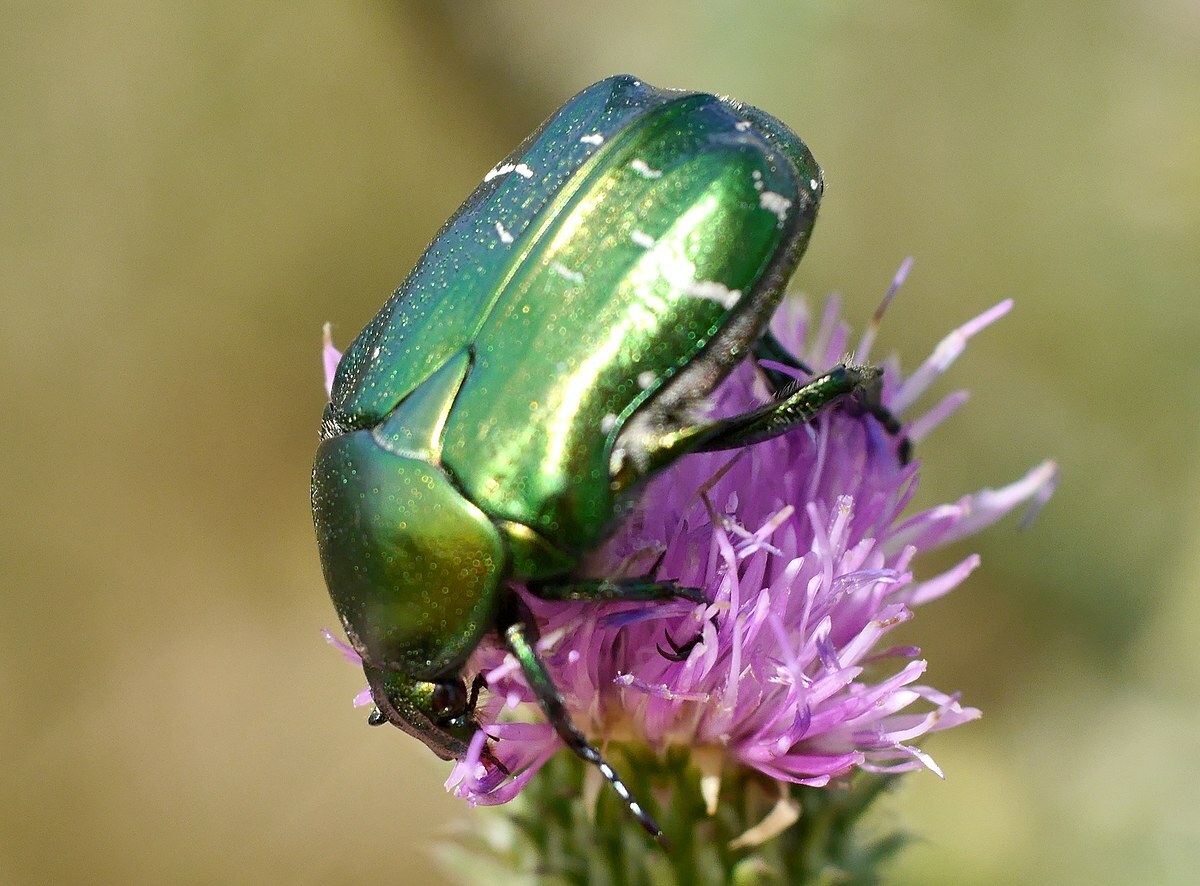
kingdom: Animalia
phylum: Arthropoda
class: Insecta
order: Coleoptera
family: Scarabaeidae
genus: Cetonia
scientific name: Cetonia aurata
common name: Rose chafer
